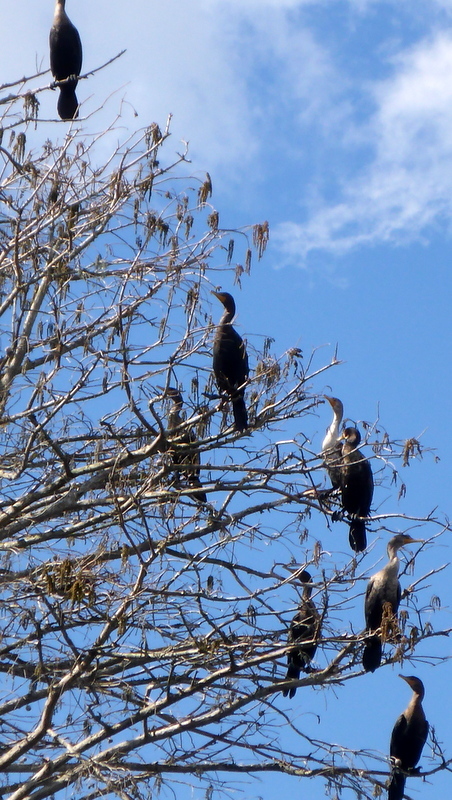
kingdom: Animalia
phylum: Chordata
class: Aves
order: Suliformes
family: Phalacrocoracidae
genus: Phalacrocorax
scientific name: Phalacrocorax auritus
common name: Double-crested cormorant
